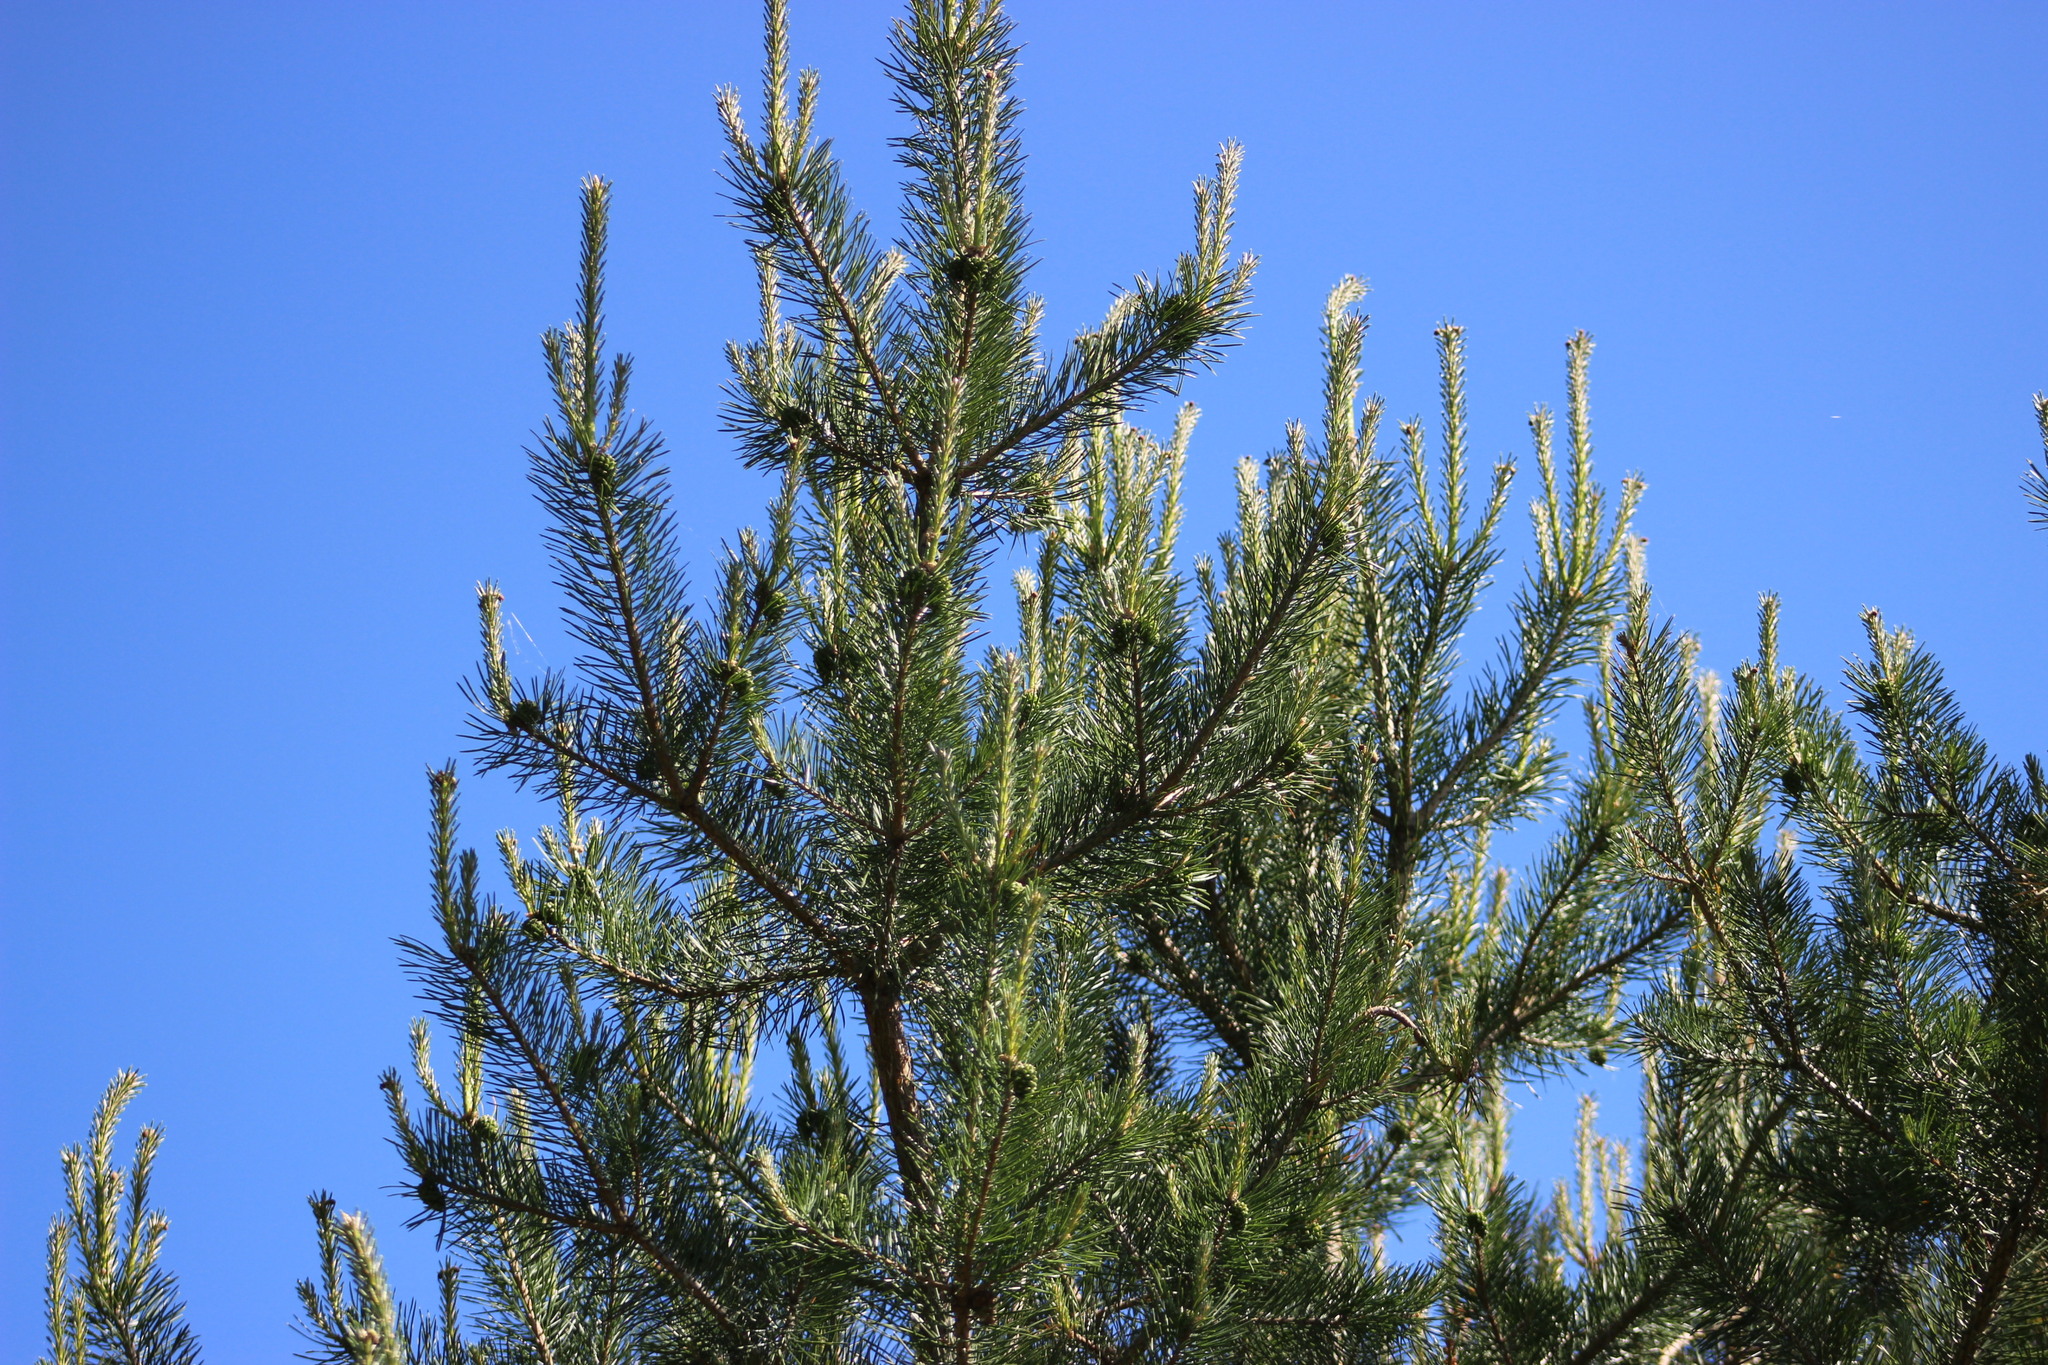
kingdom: Plantae
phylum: Tracheophyta
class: Pinopsida
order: Pinales
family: Pinaceae
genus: Pinus
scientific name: Pinus sylvestris
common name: Scots pine
